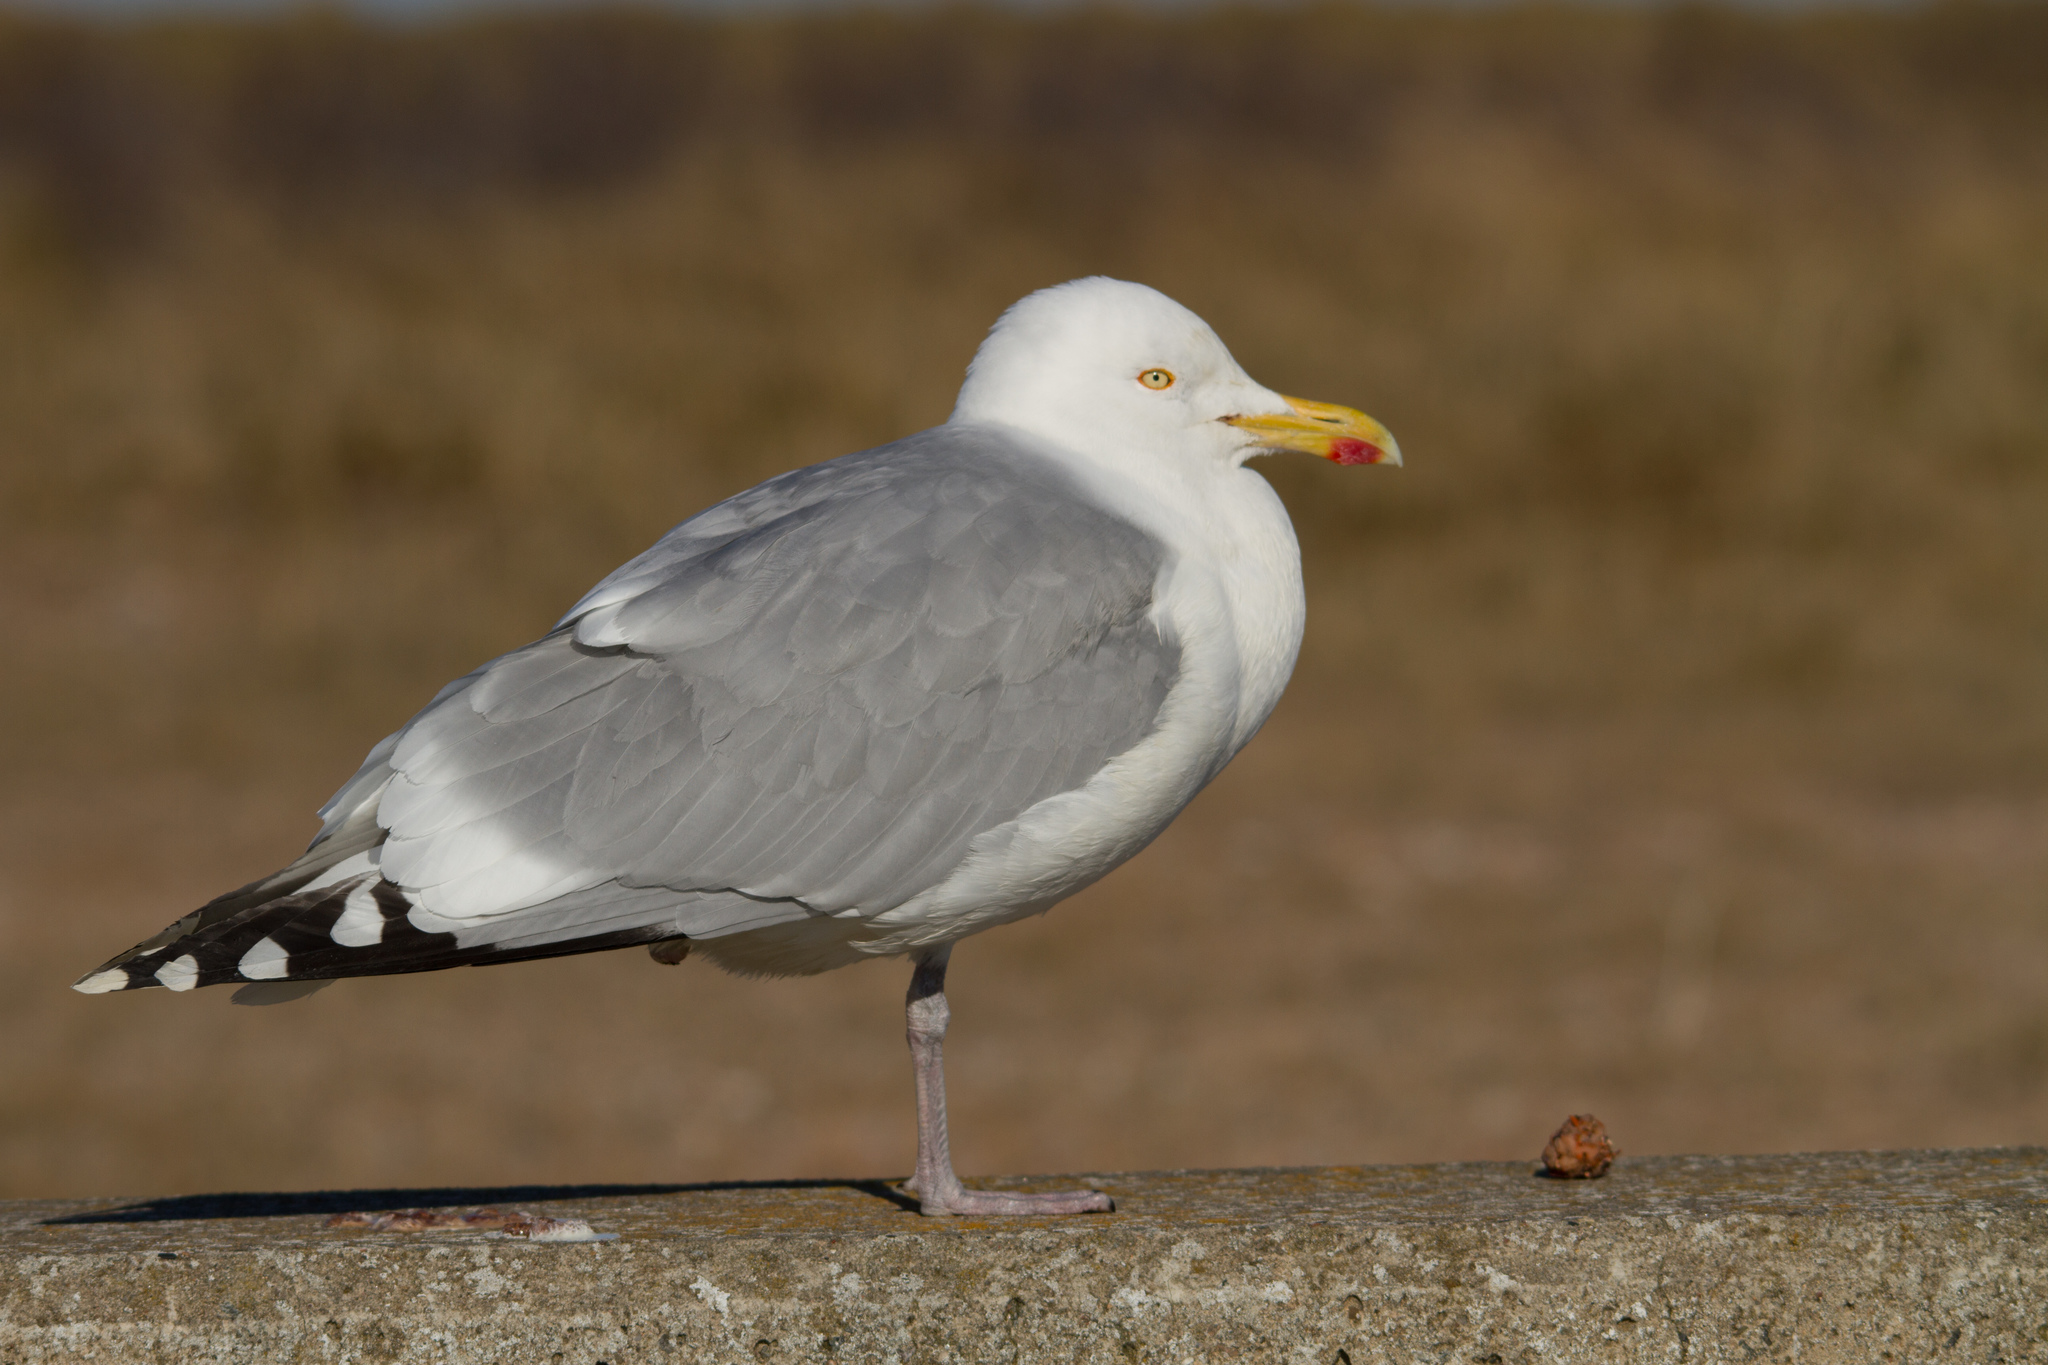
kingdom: Animalia
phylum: Chordata
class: Aves
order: Charadriiformes
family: Laridae
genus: Larus
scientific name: Larus argentatus
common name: Herring gull
